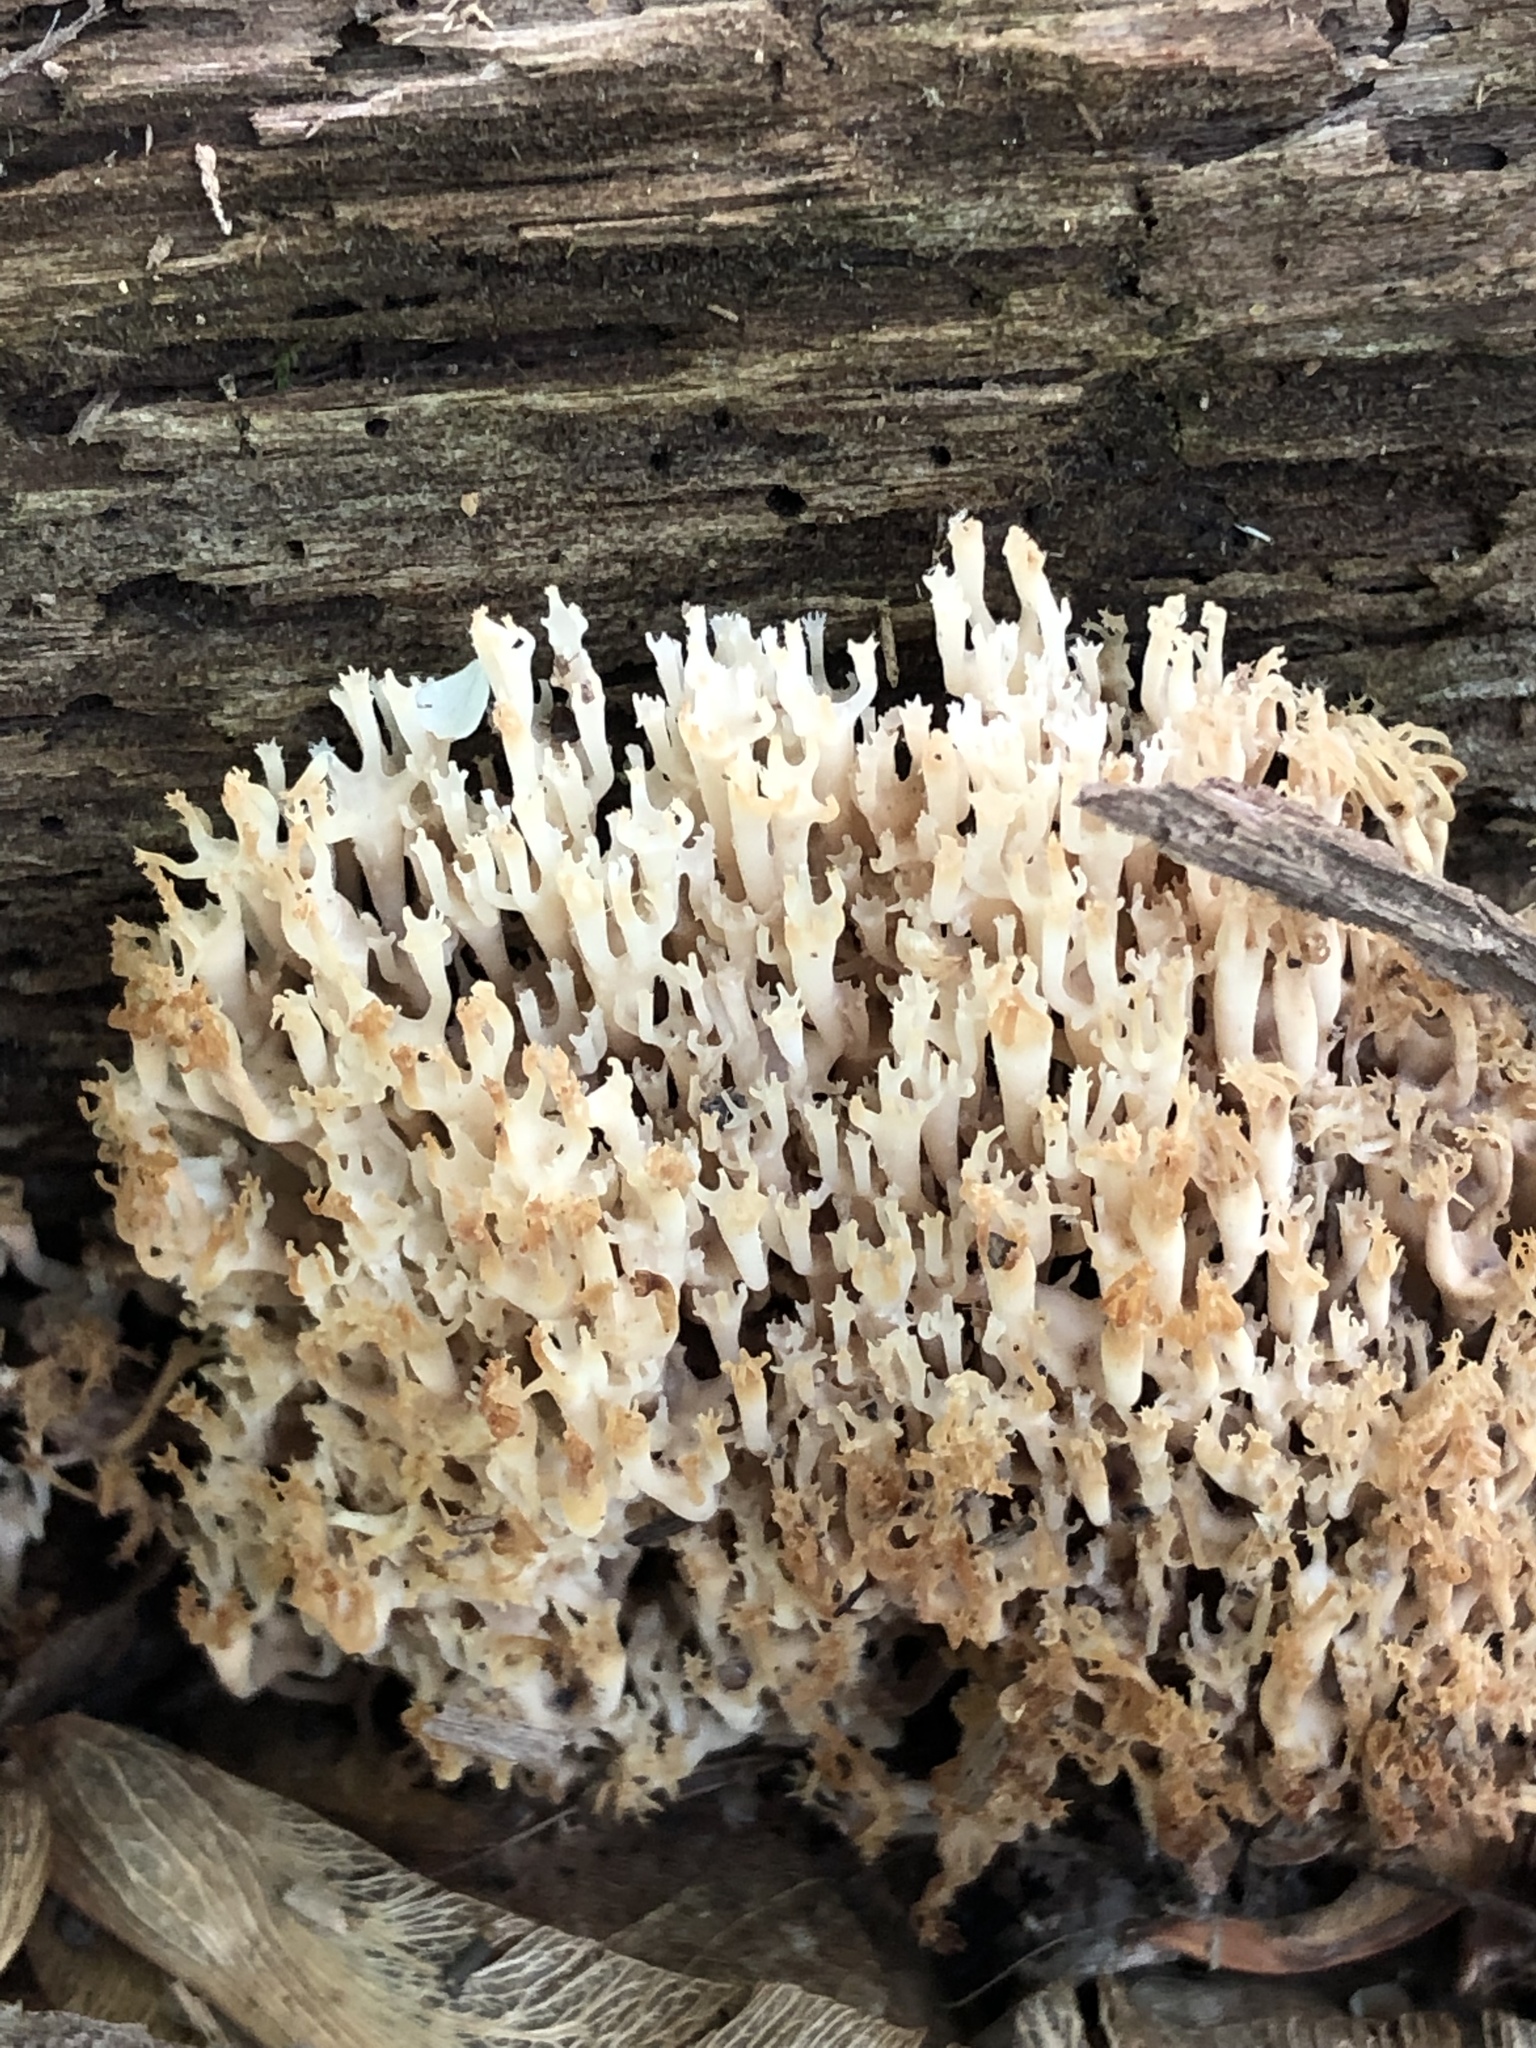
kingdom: Fungi
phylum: Basidiomycota
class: Agaricomycetes
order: Russulales
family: Auriscalpiaceae
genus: Artomyces
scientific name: Artomyces pyxidatus
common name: Crown-tipped coral fungus
